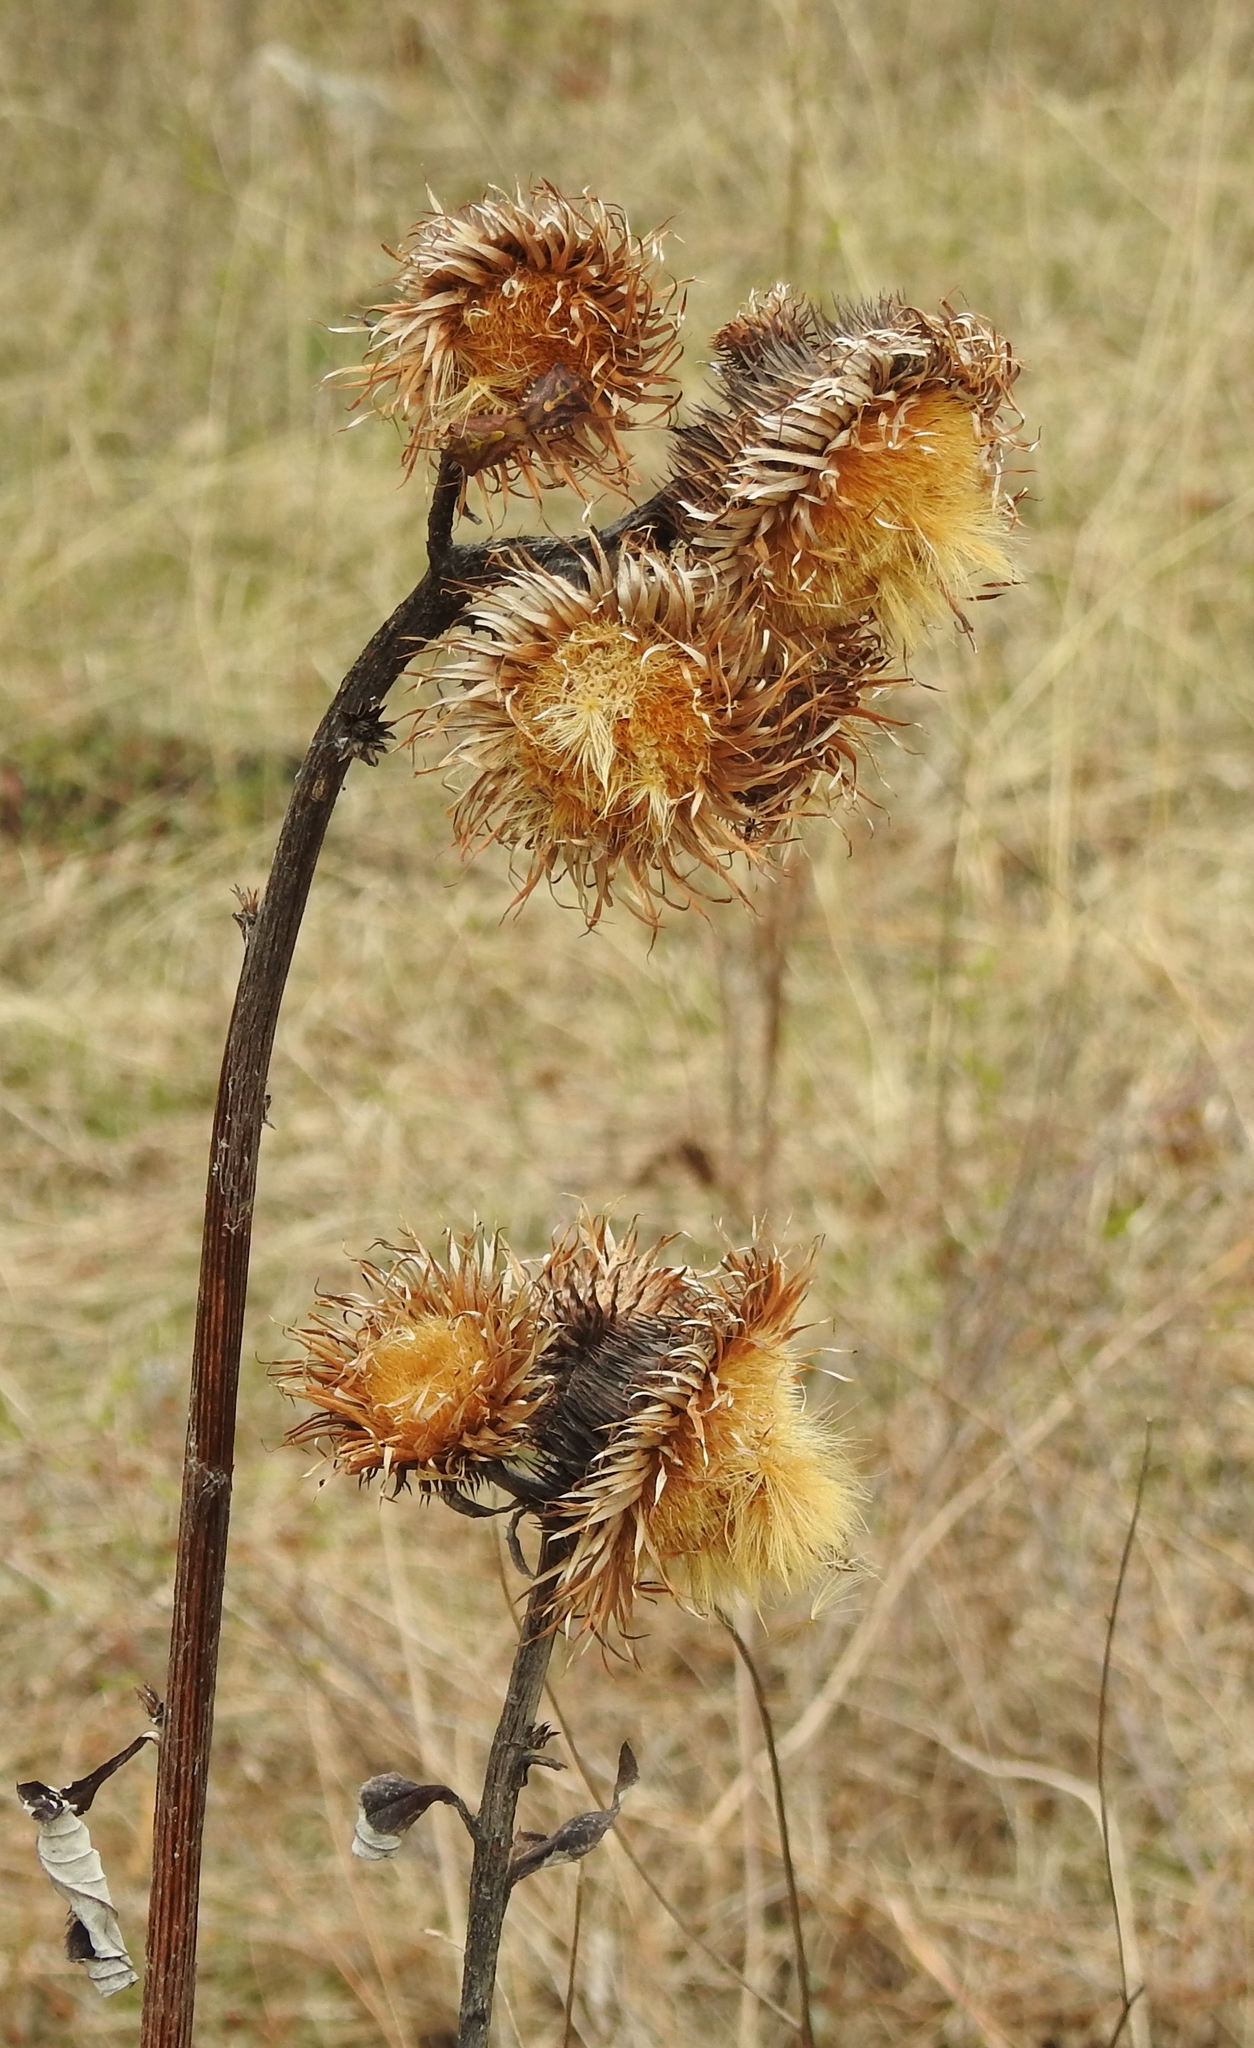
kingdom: Plantae
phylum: Tracheophyta
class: Magnoliopsida
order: Asterales
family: Asteraceae
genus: Synurus
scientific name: Synurus deltoides
